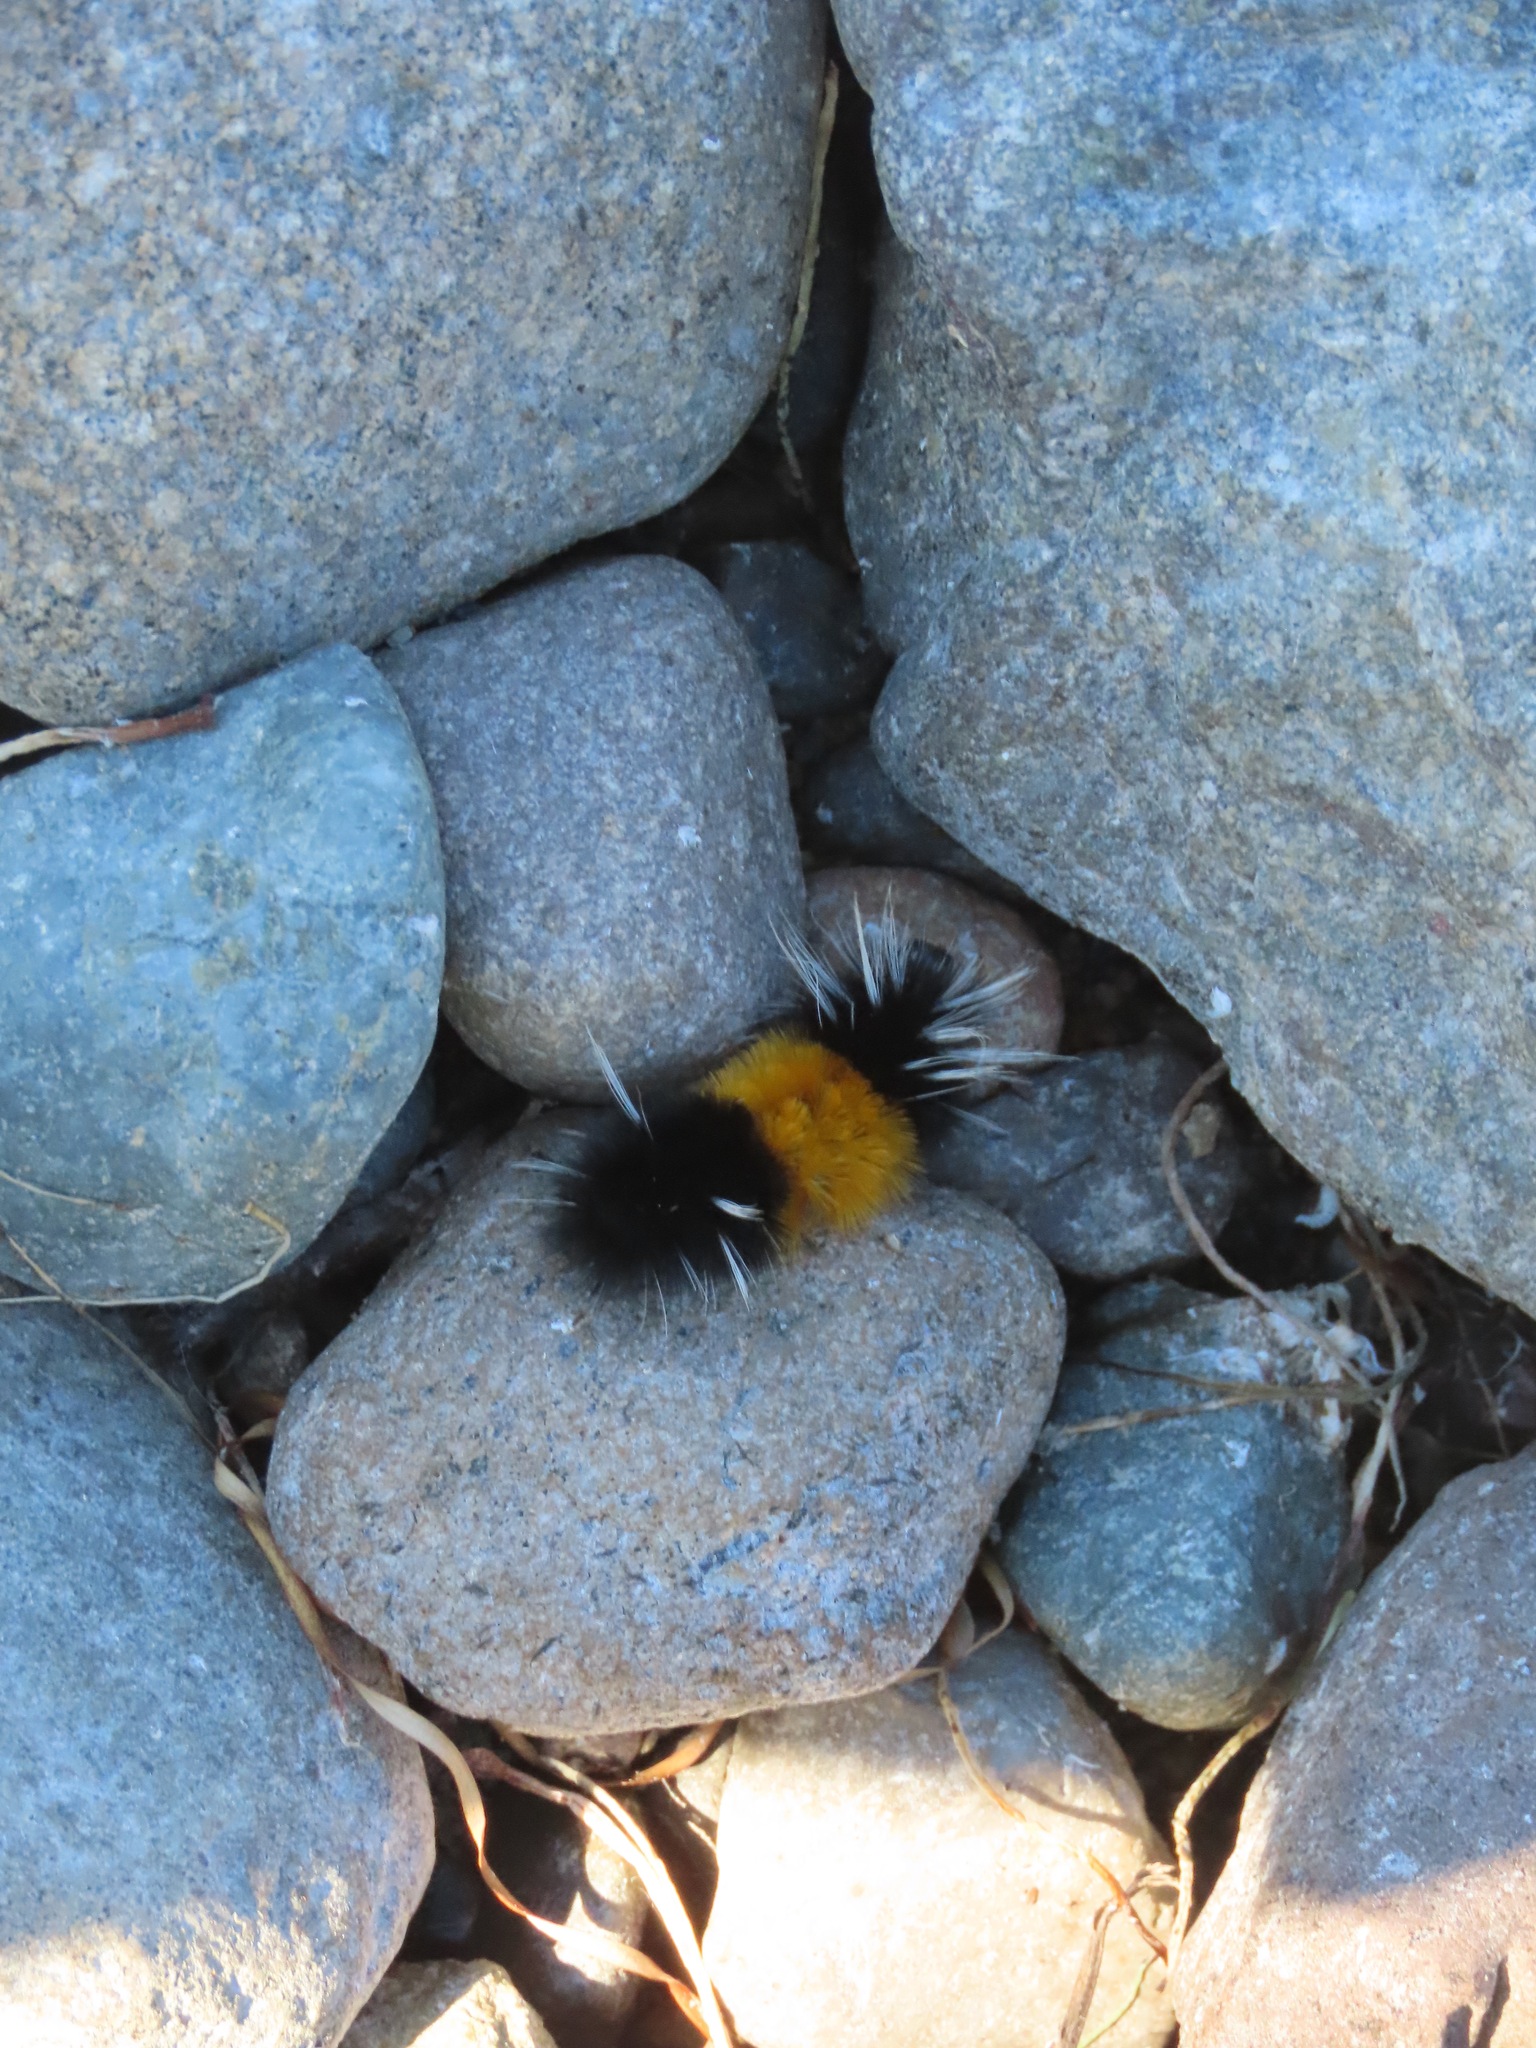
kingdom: Animalia
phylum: Arthropoda
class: Insecta
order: Lepidoptera
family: Erebidae
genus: Lophocampa
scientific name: Lophocampa maculata
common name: Spotted tussock moth
